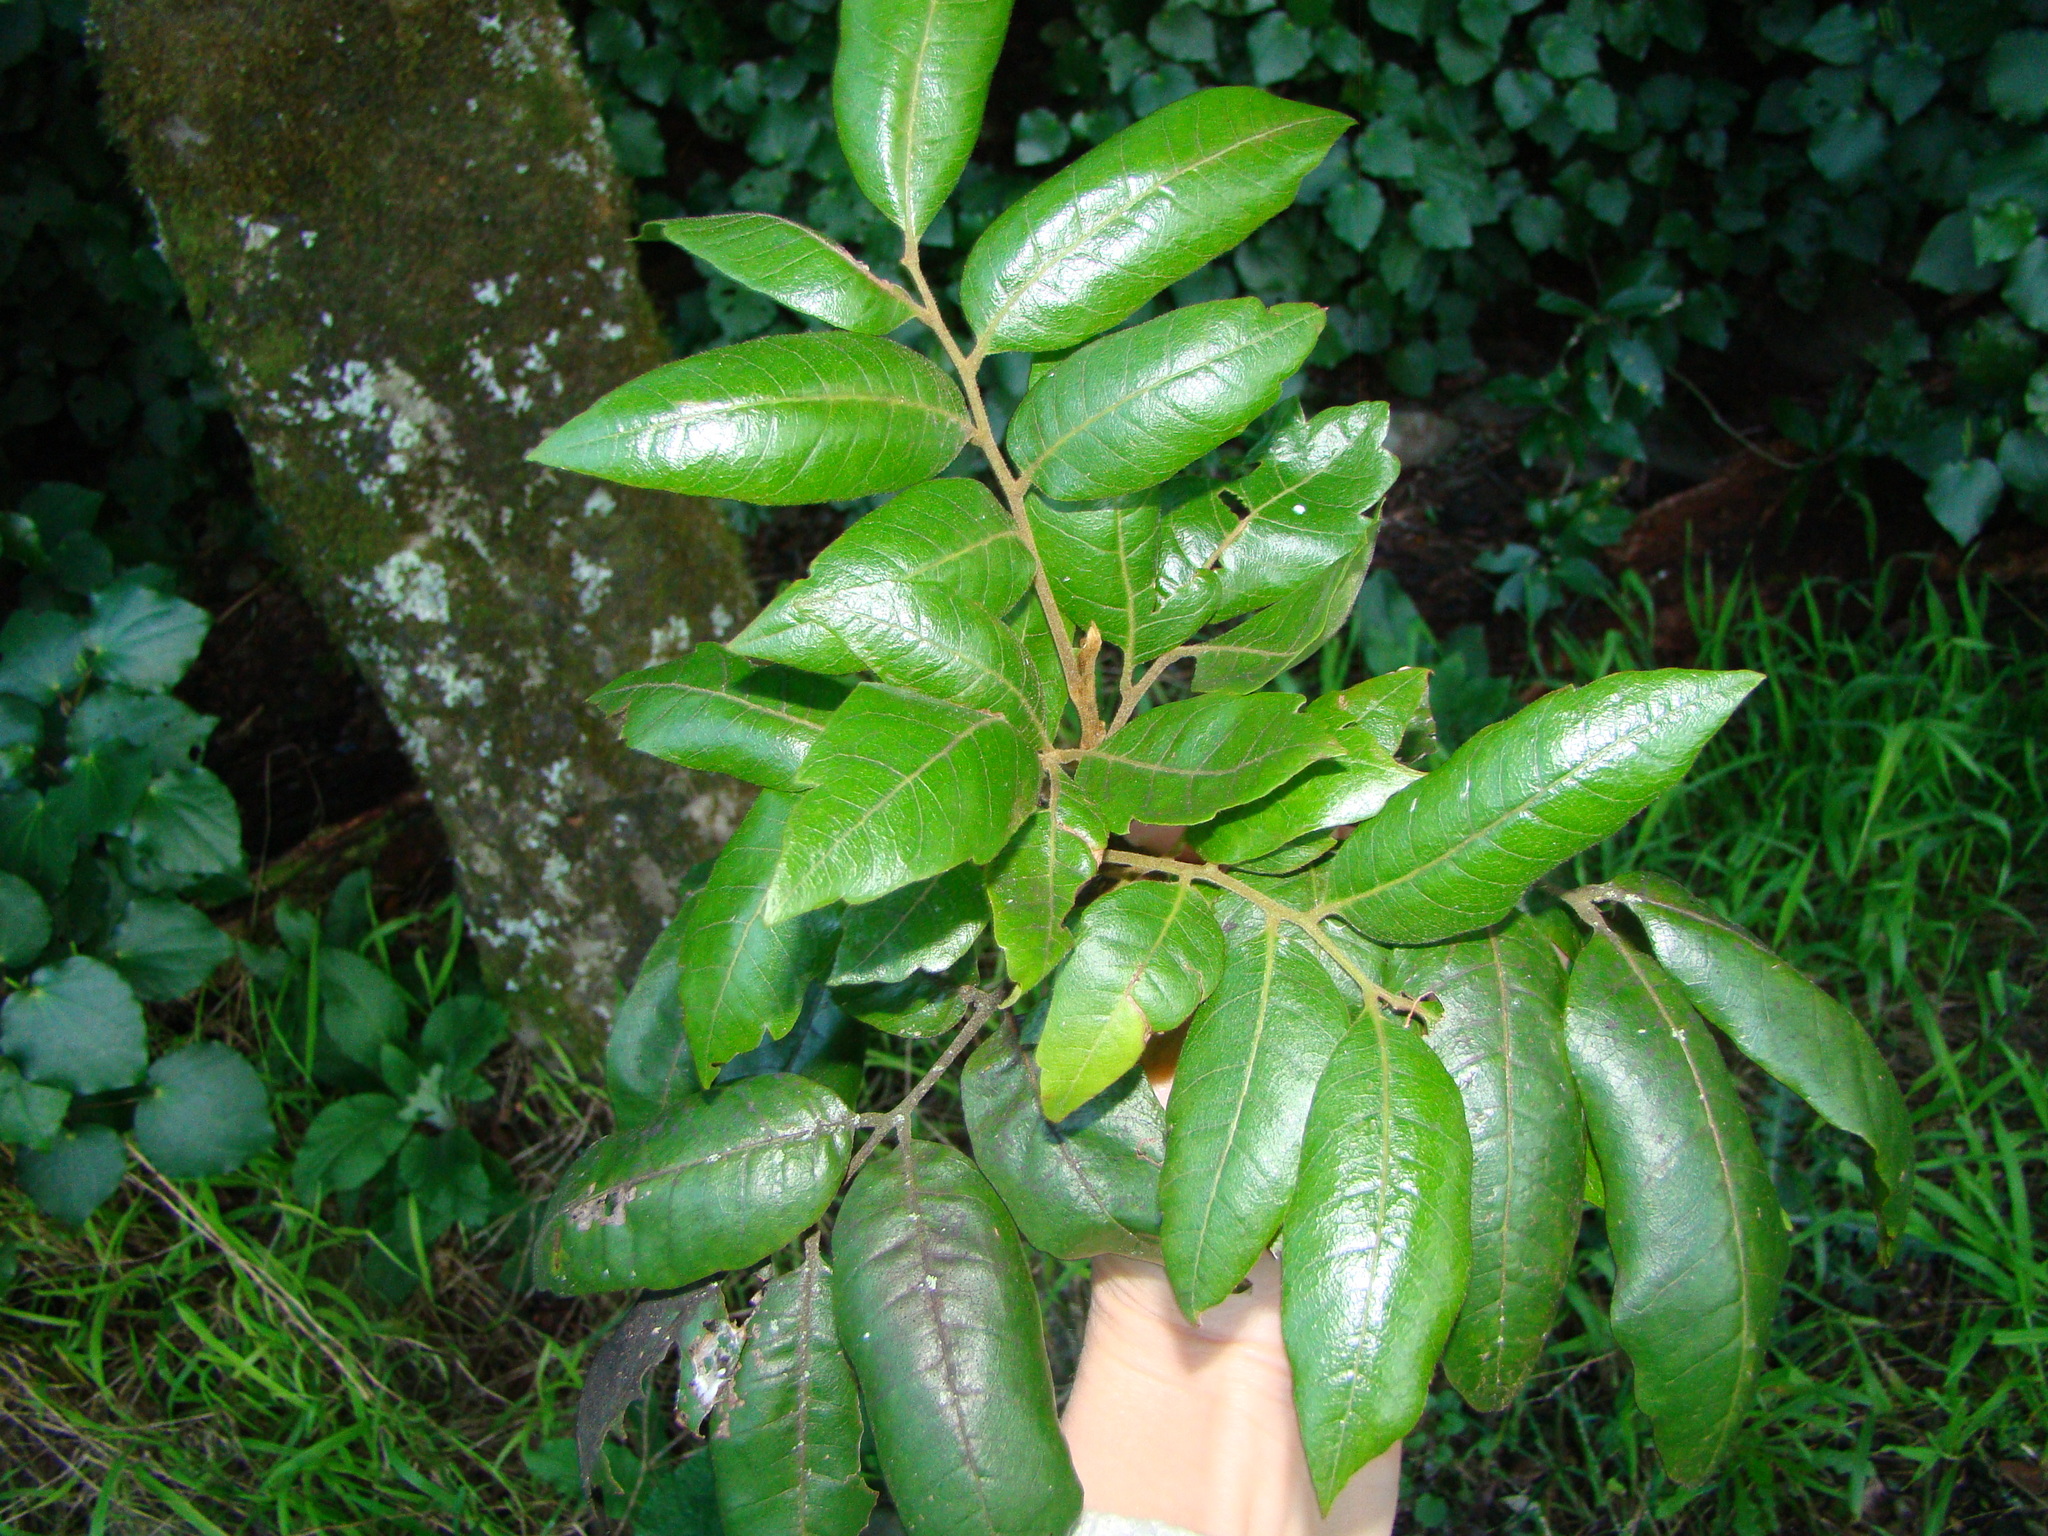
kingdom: Plantae
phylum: Tracheophyta
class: Magnoliopsida
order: Sapindales
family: Sapindaceae
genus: Alectryon
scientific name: Alectryon excelsus
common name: Three kings titoki
